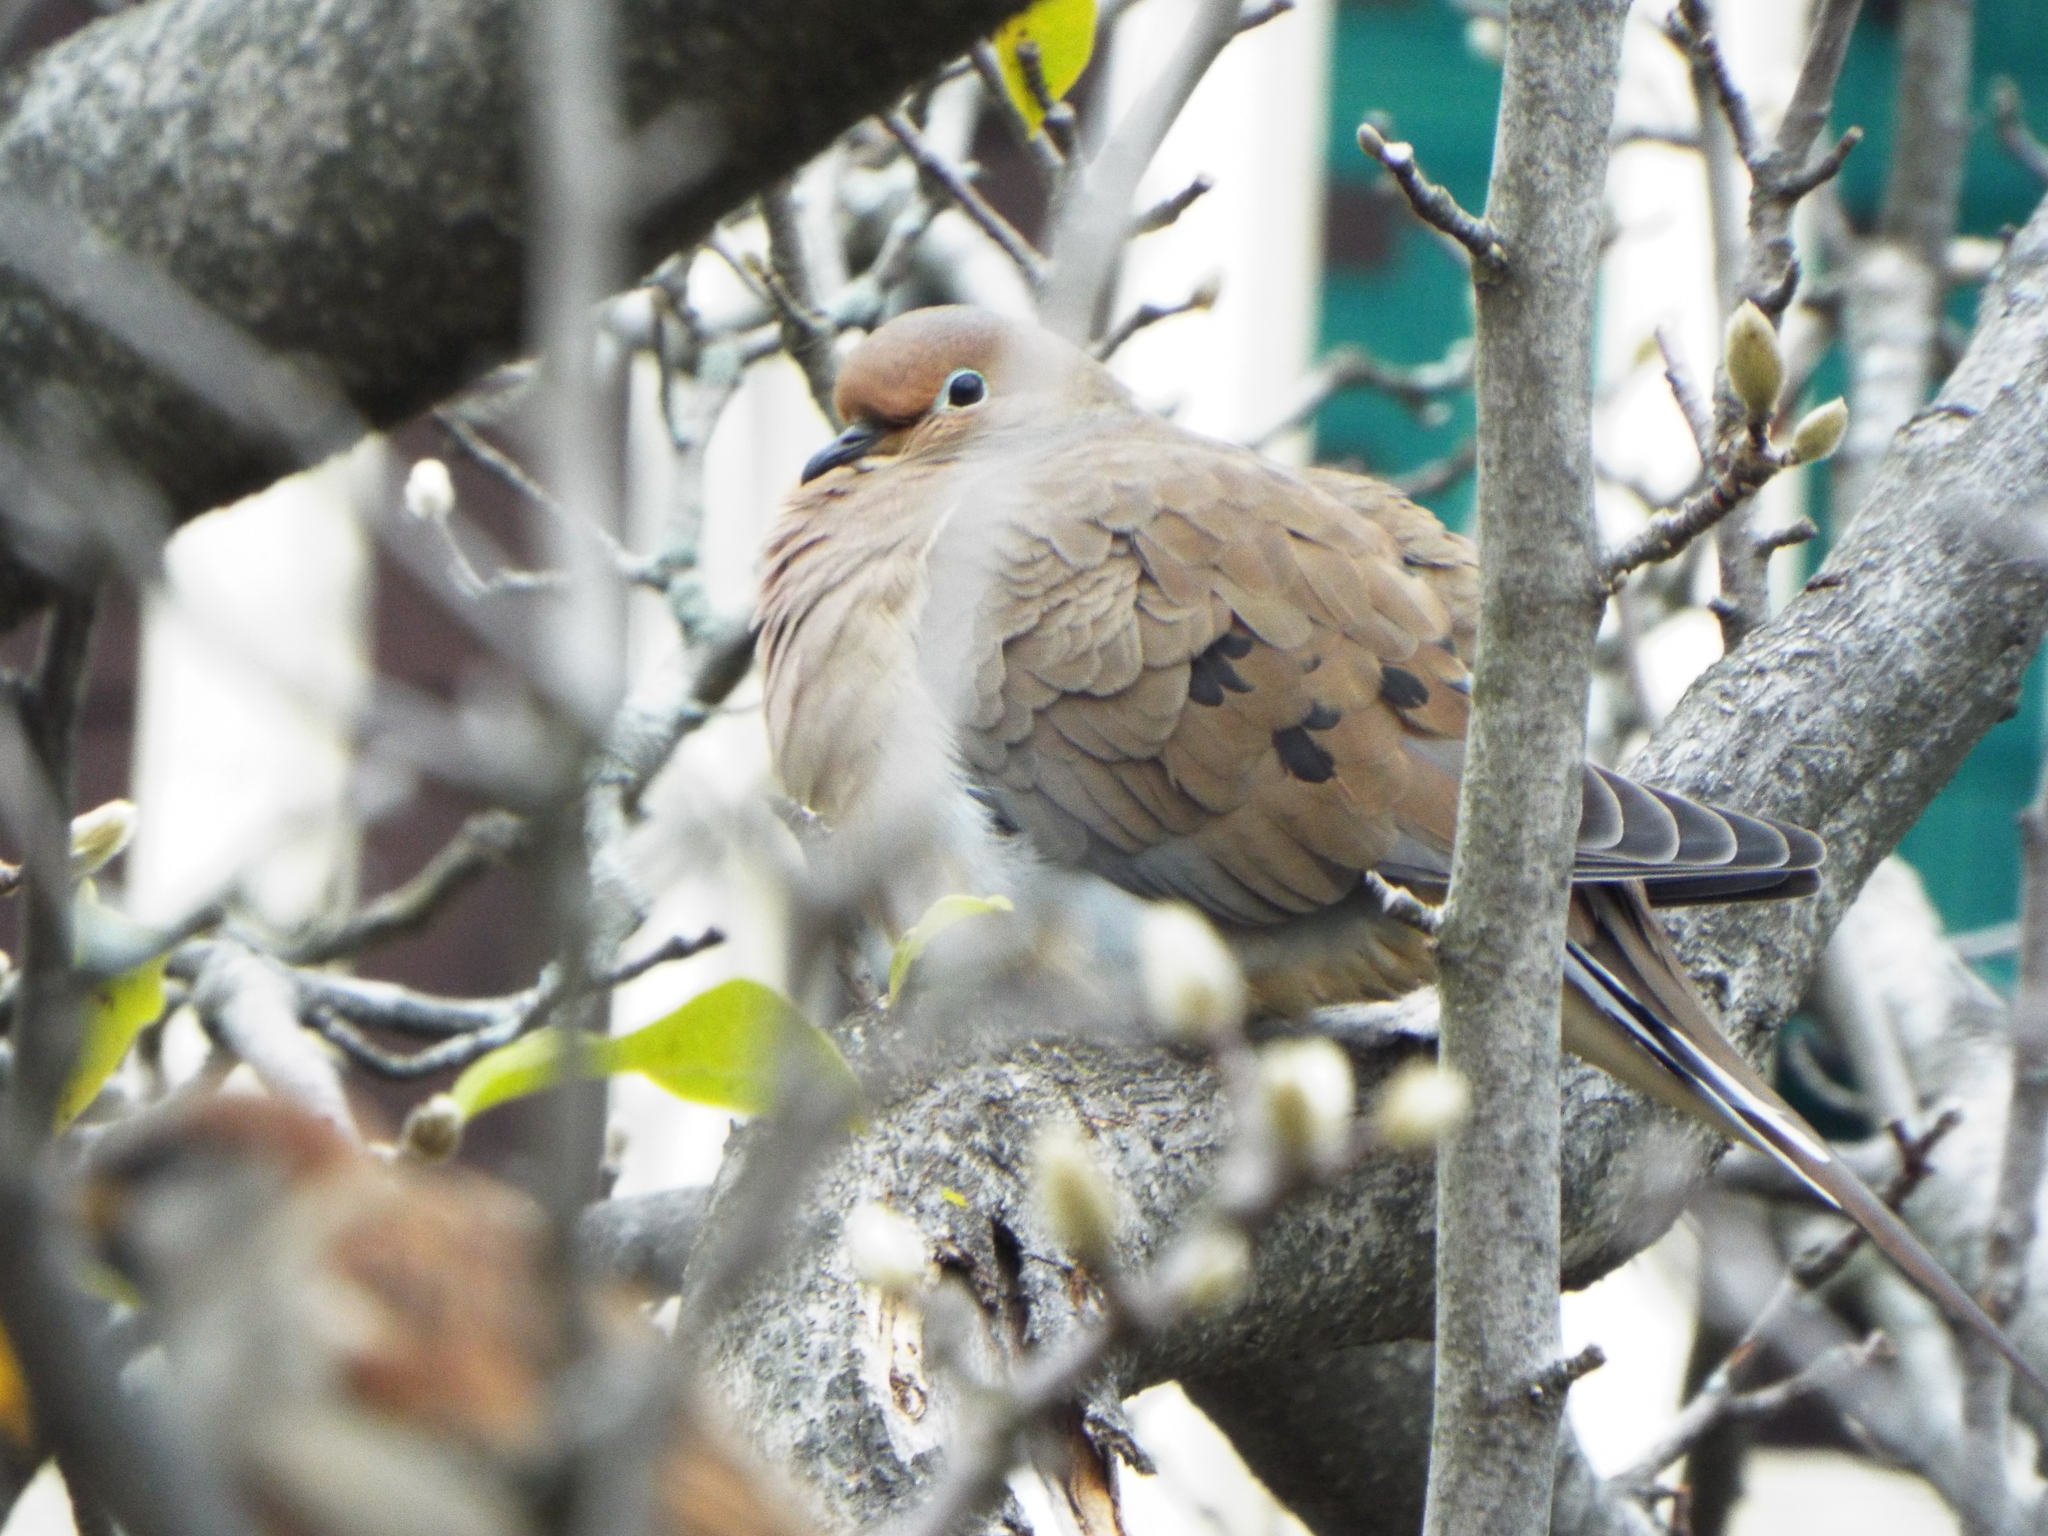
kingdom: Animalia
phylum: Chordata
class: Aves
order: Columbiformes
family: Columbidae
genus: Zenaida
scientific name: Zenaida macroura
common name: Mourning dove
